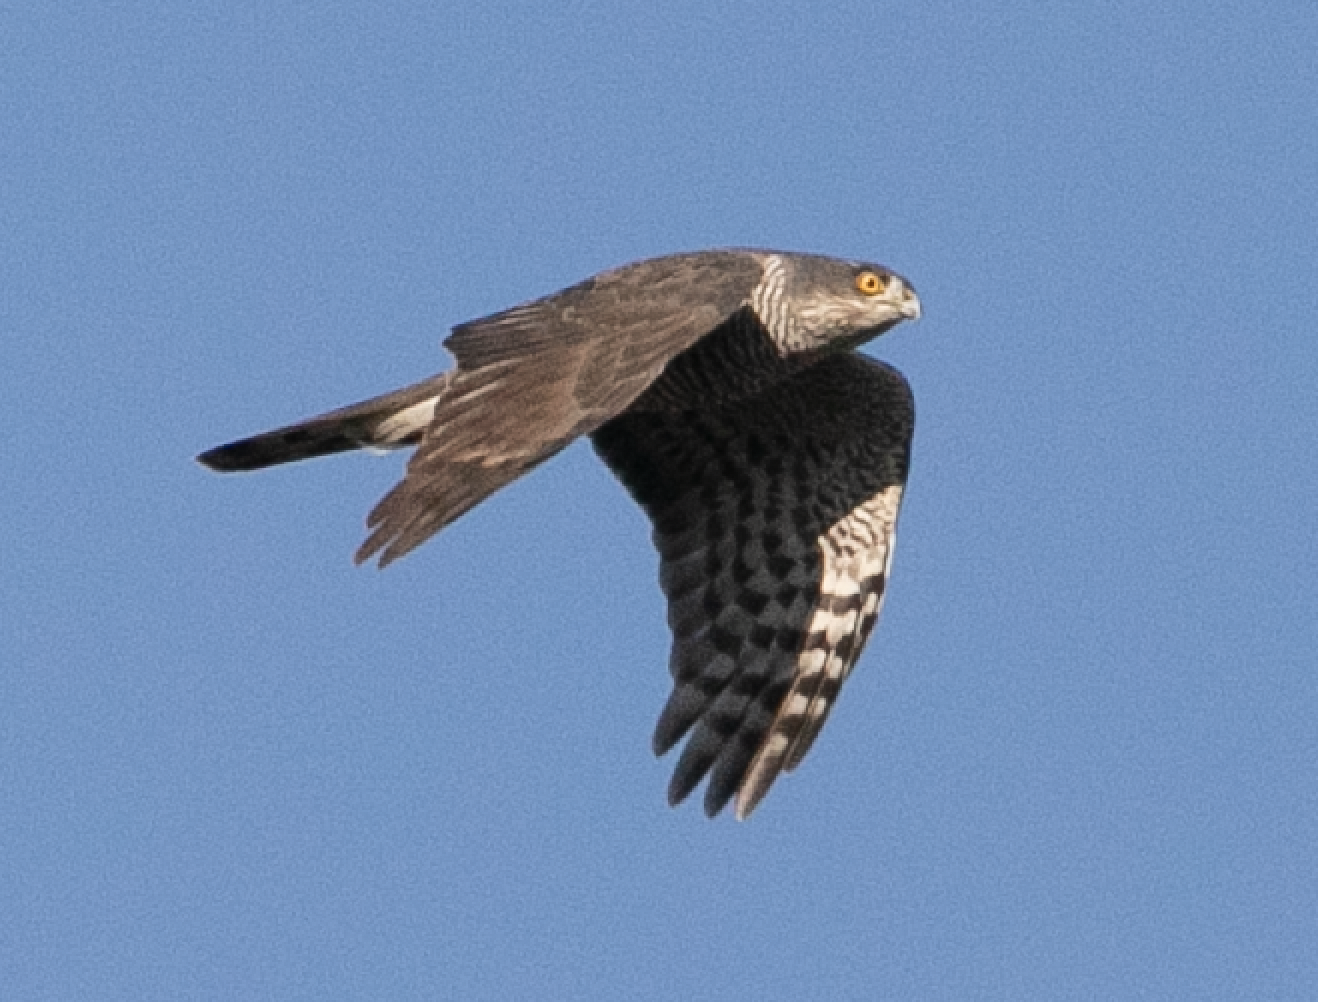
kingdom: Animalia
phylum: Chordata
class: Aves
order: Accipitriformes
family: Accipitridae
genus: Accipiter
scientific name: Accipiter nisus
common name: Eurasian sparrowhawk
